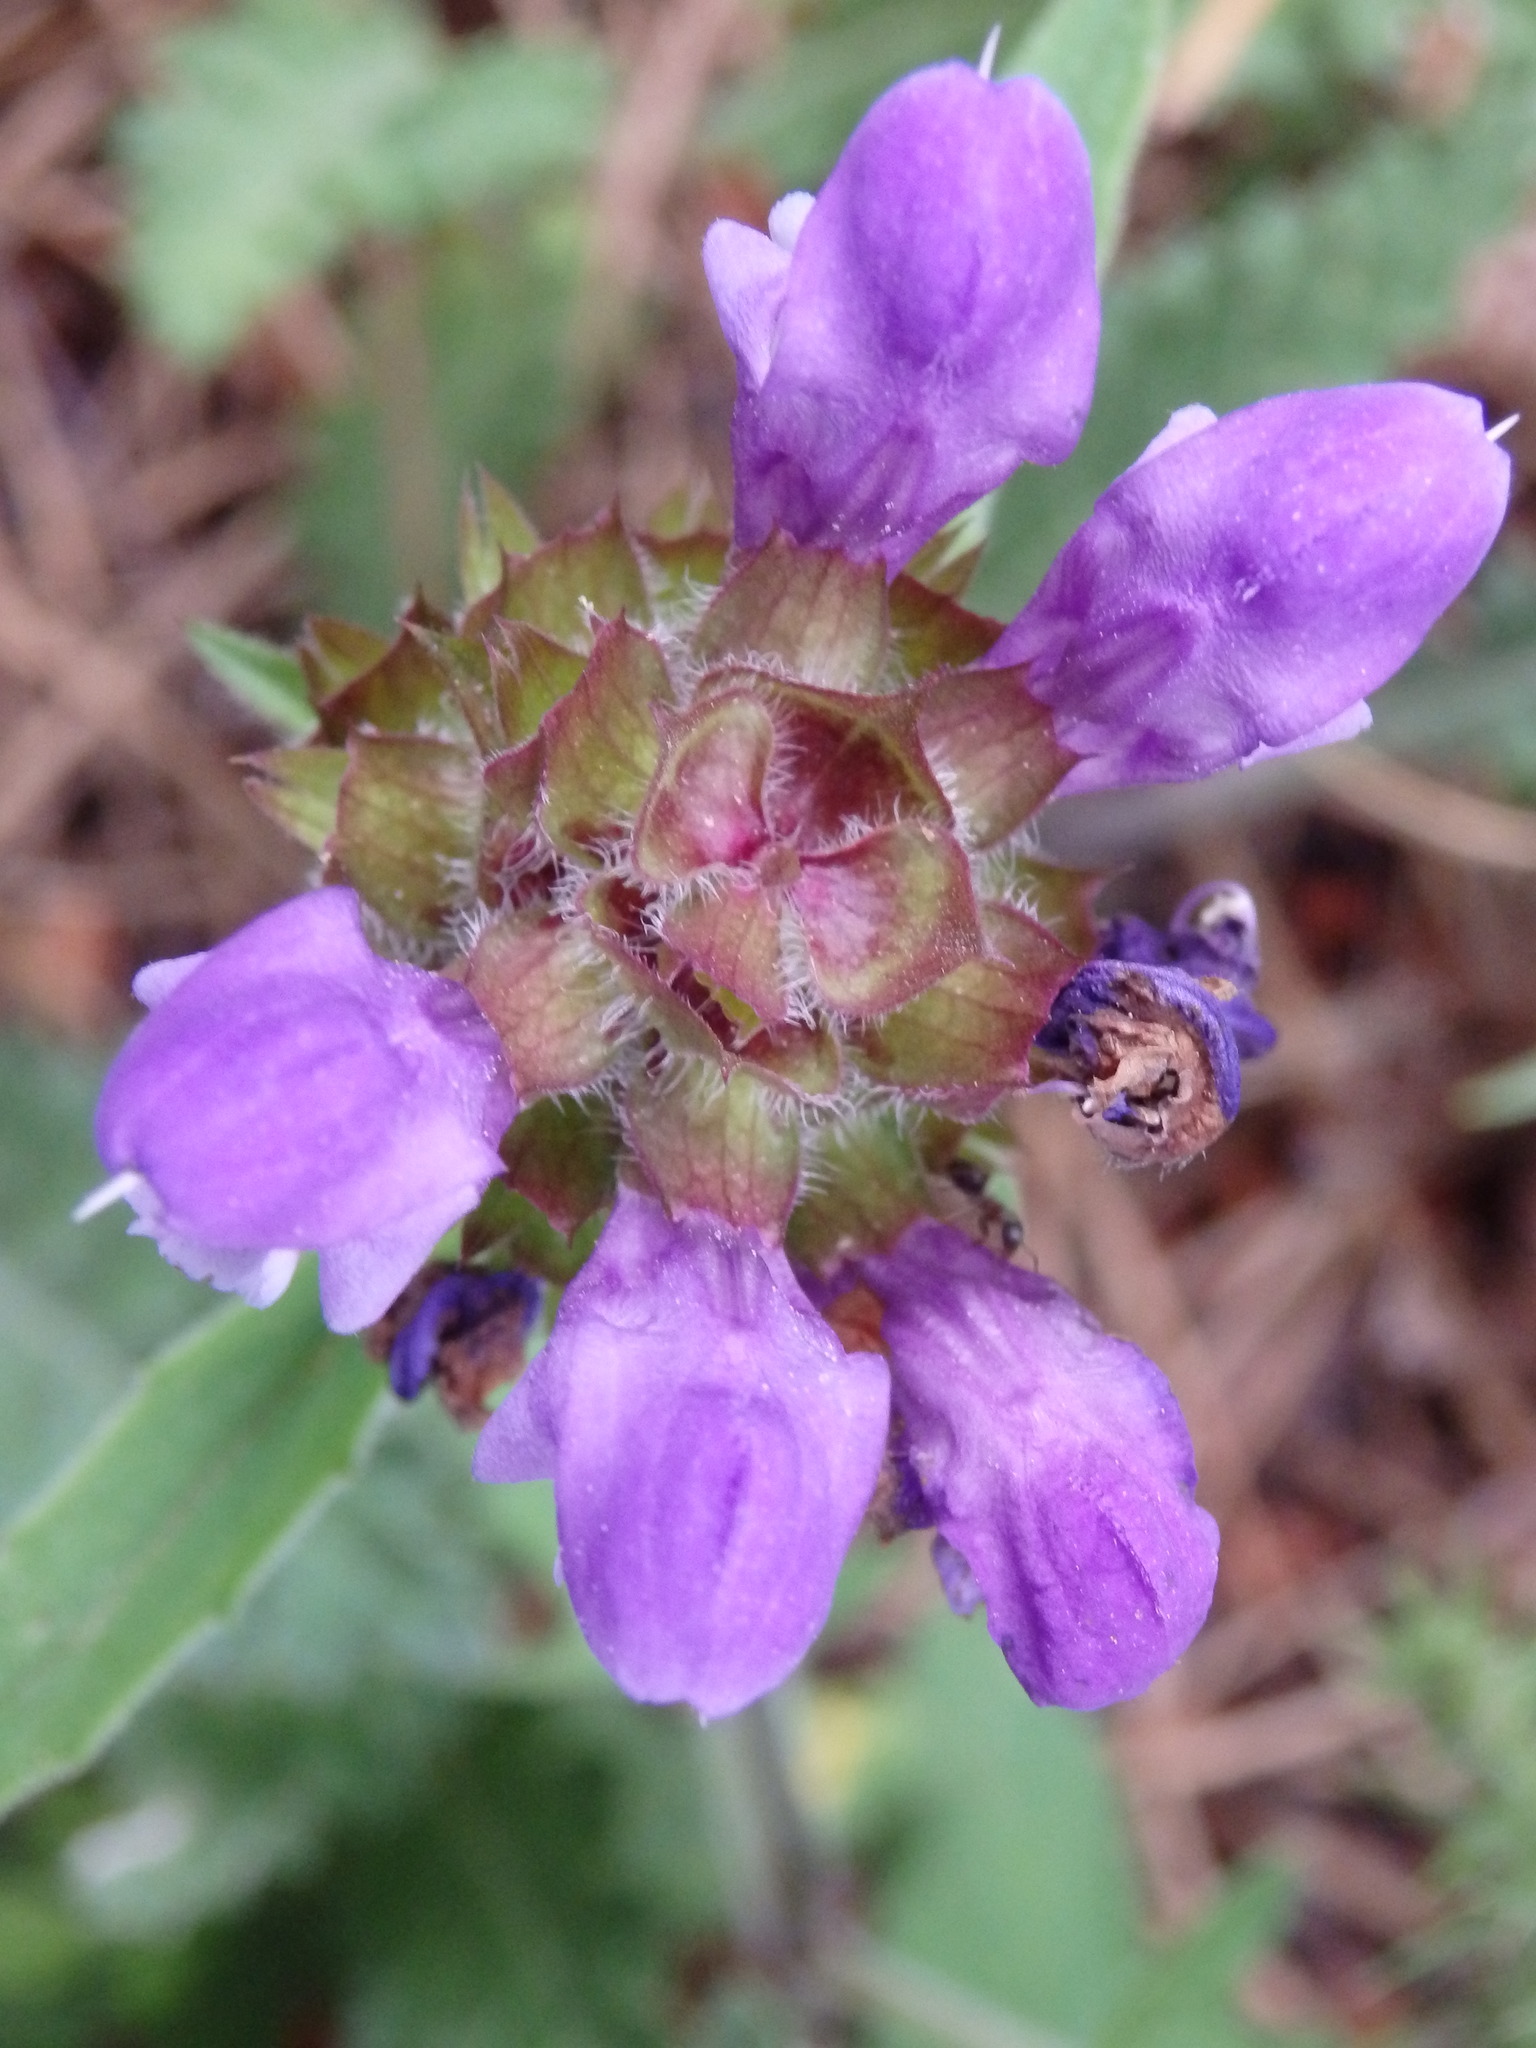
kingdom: Plantae
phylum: Tracheophyta
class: Magnoliopsida
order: Lamiales
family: Lamiaceae
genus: Prunella
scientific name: Prunella grandiflora
